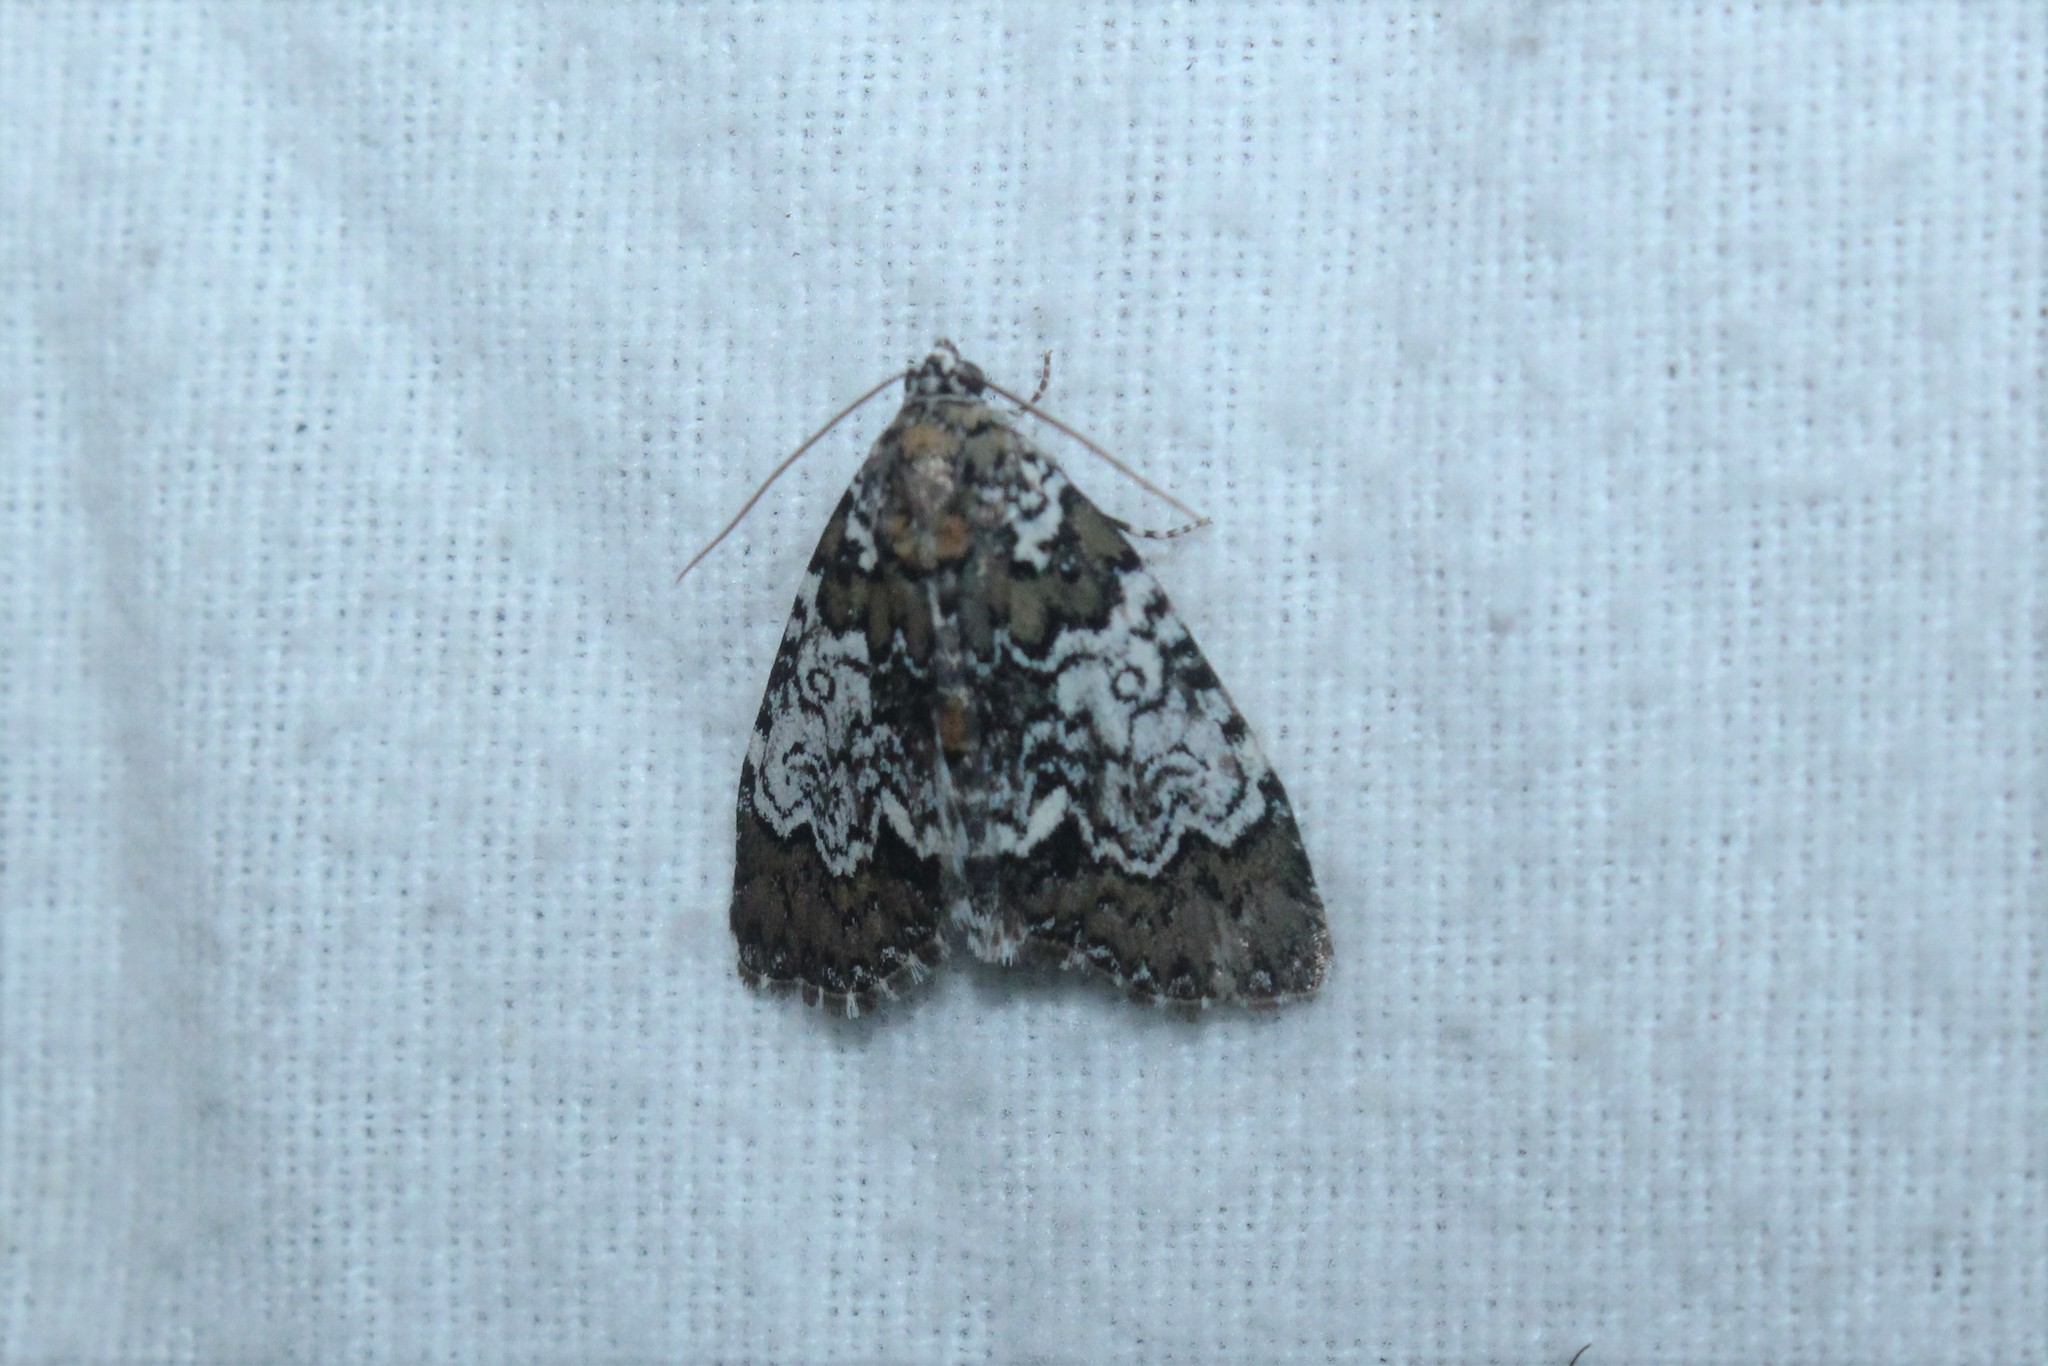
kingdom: Animalia
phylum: Arthropoda
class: Insecta
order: Lepidoptera
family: Noctuidae
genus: Cerma
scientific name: Cerma cora
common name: Bird dropping moth
